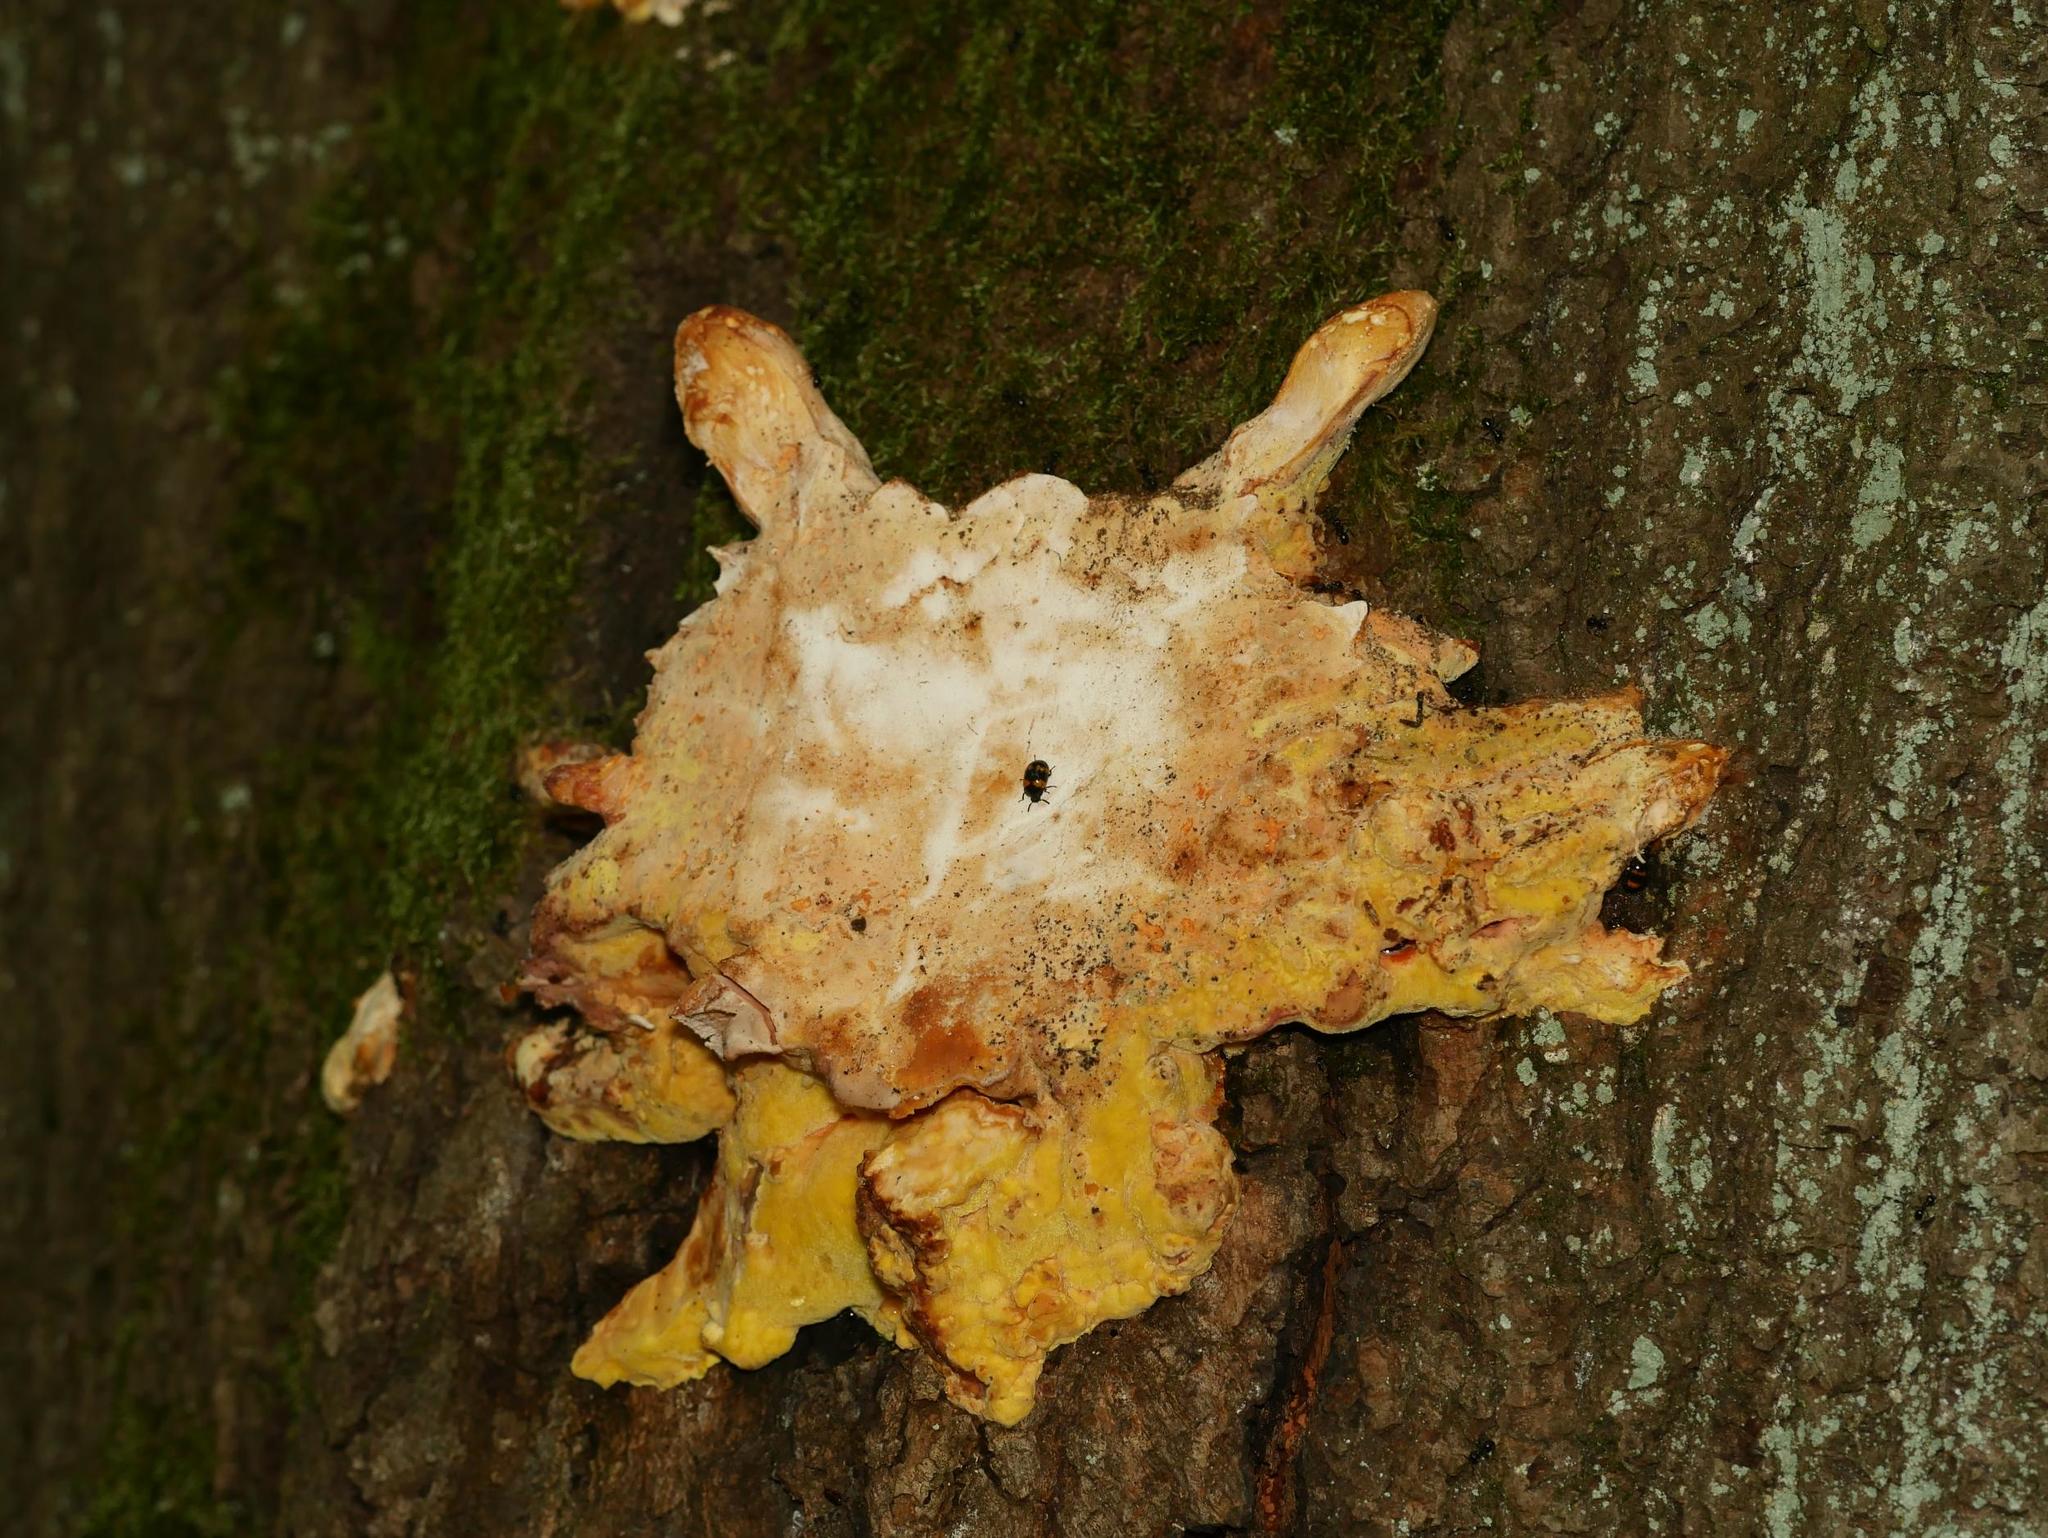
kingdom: Fungi
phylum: Basidiomycota
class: Agaricomycetes
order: Polyporales
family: Laetiporaceae
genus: Laetiporus
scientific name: Laetiporus sulphureus
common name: Chicken of the woods
